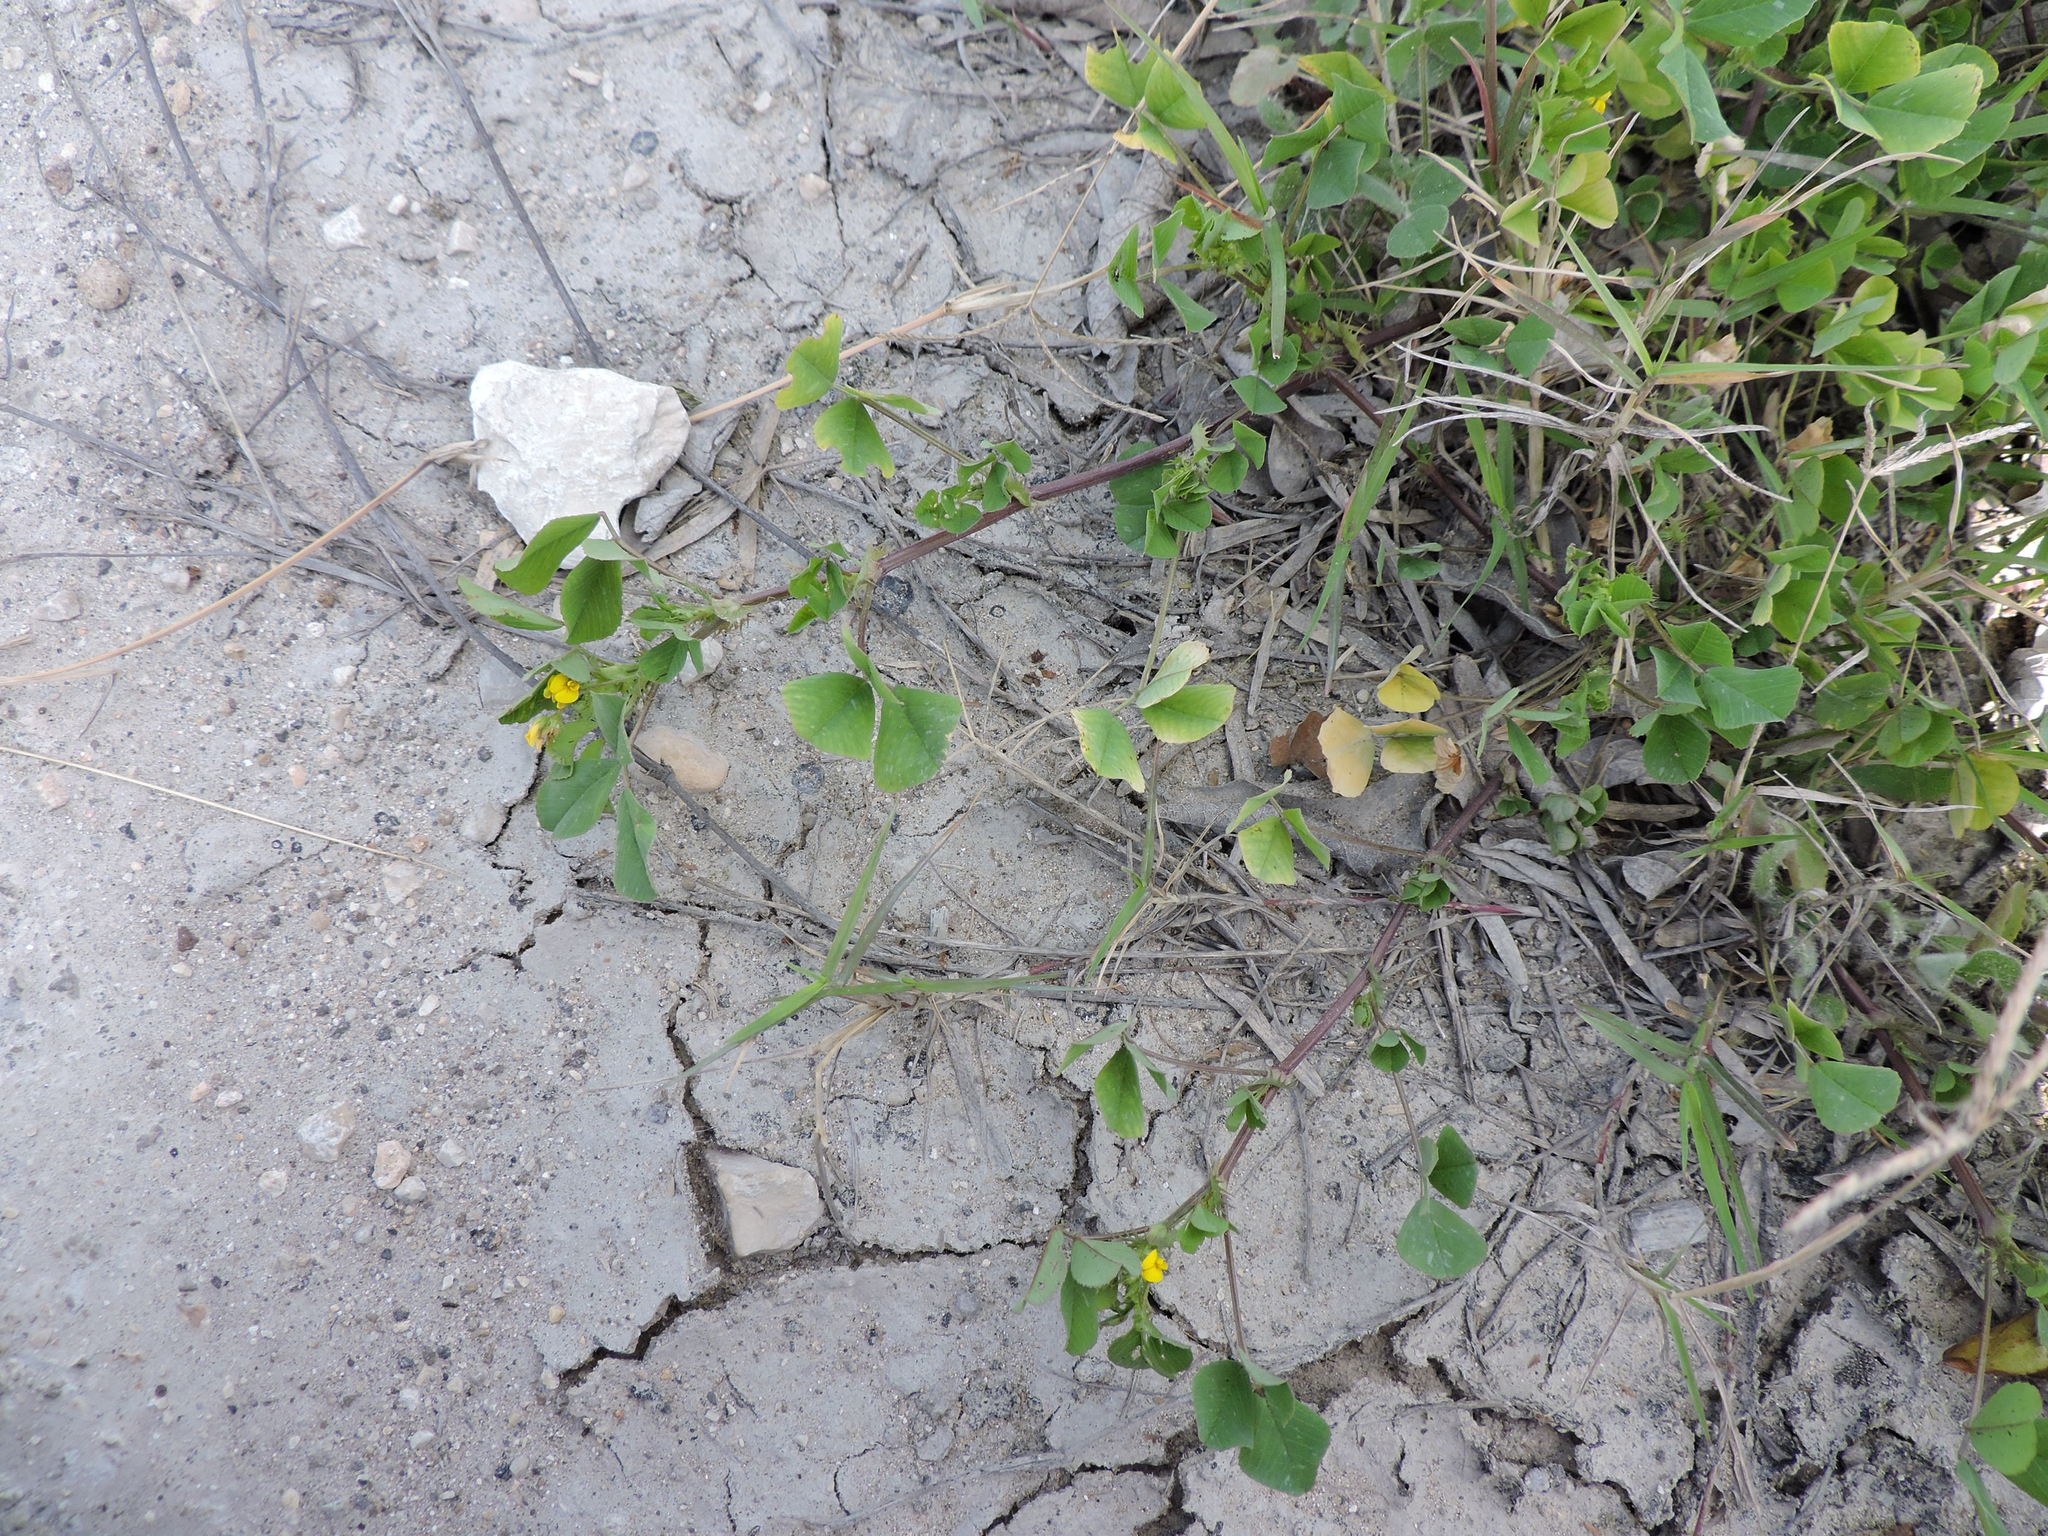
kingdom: Plantae
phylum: Tracheophyta
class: Magnoliopsida
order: Fabales
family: Fabaceae
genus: Medicago
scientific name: Medicago polymorpha
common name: Burclover
